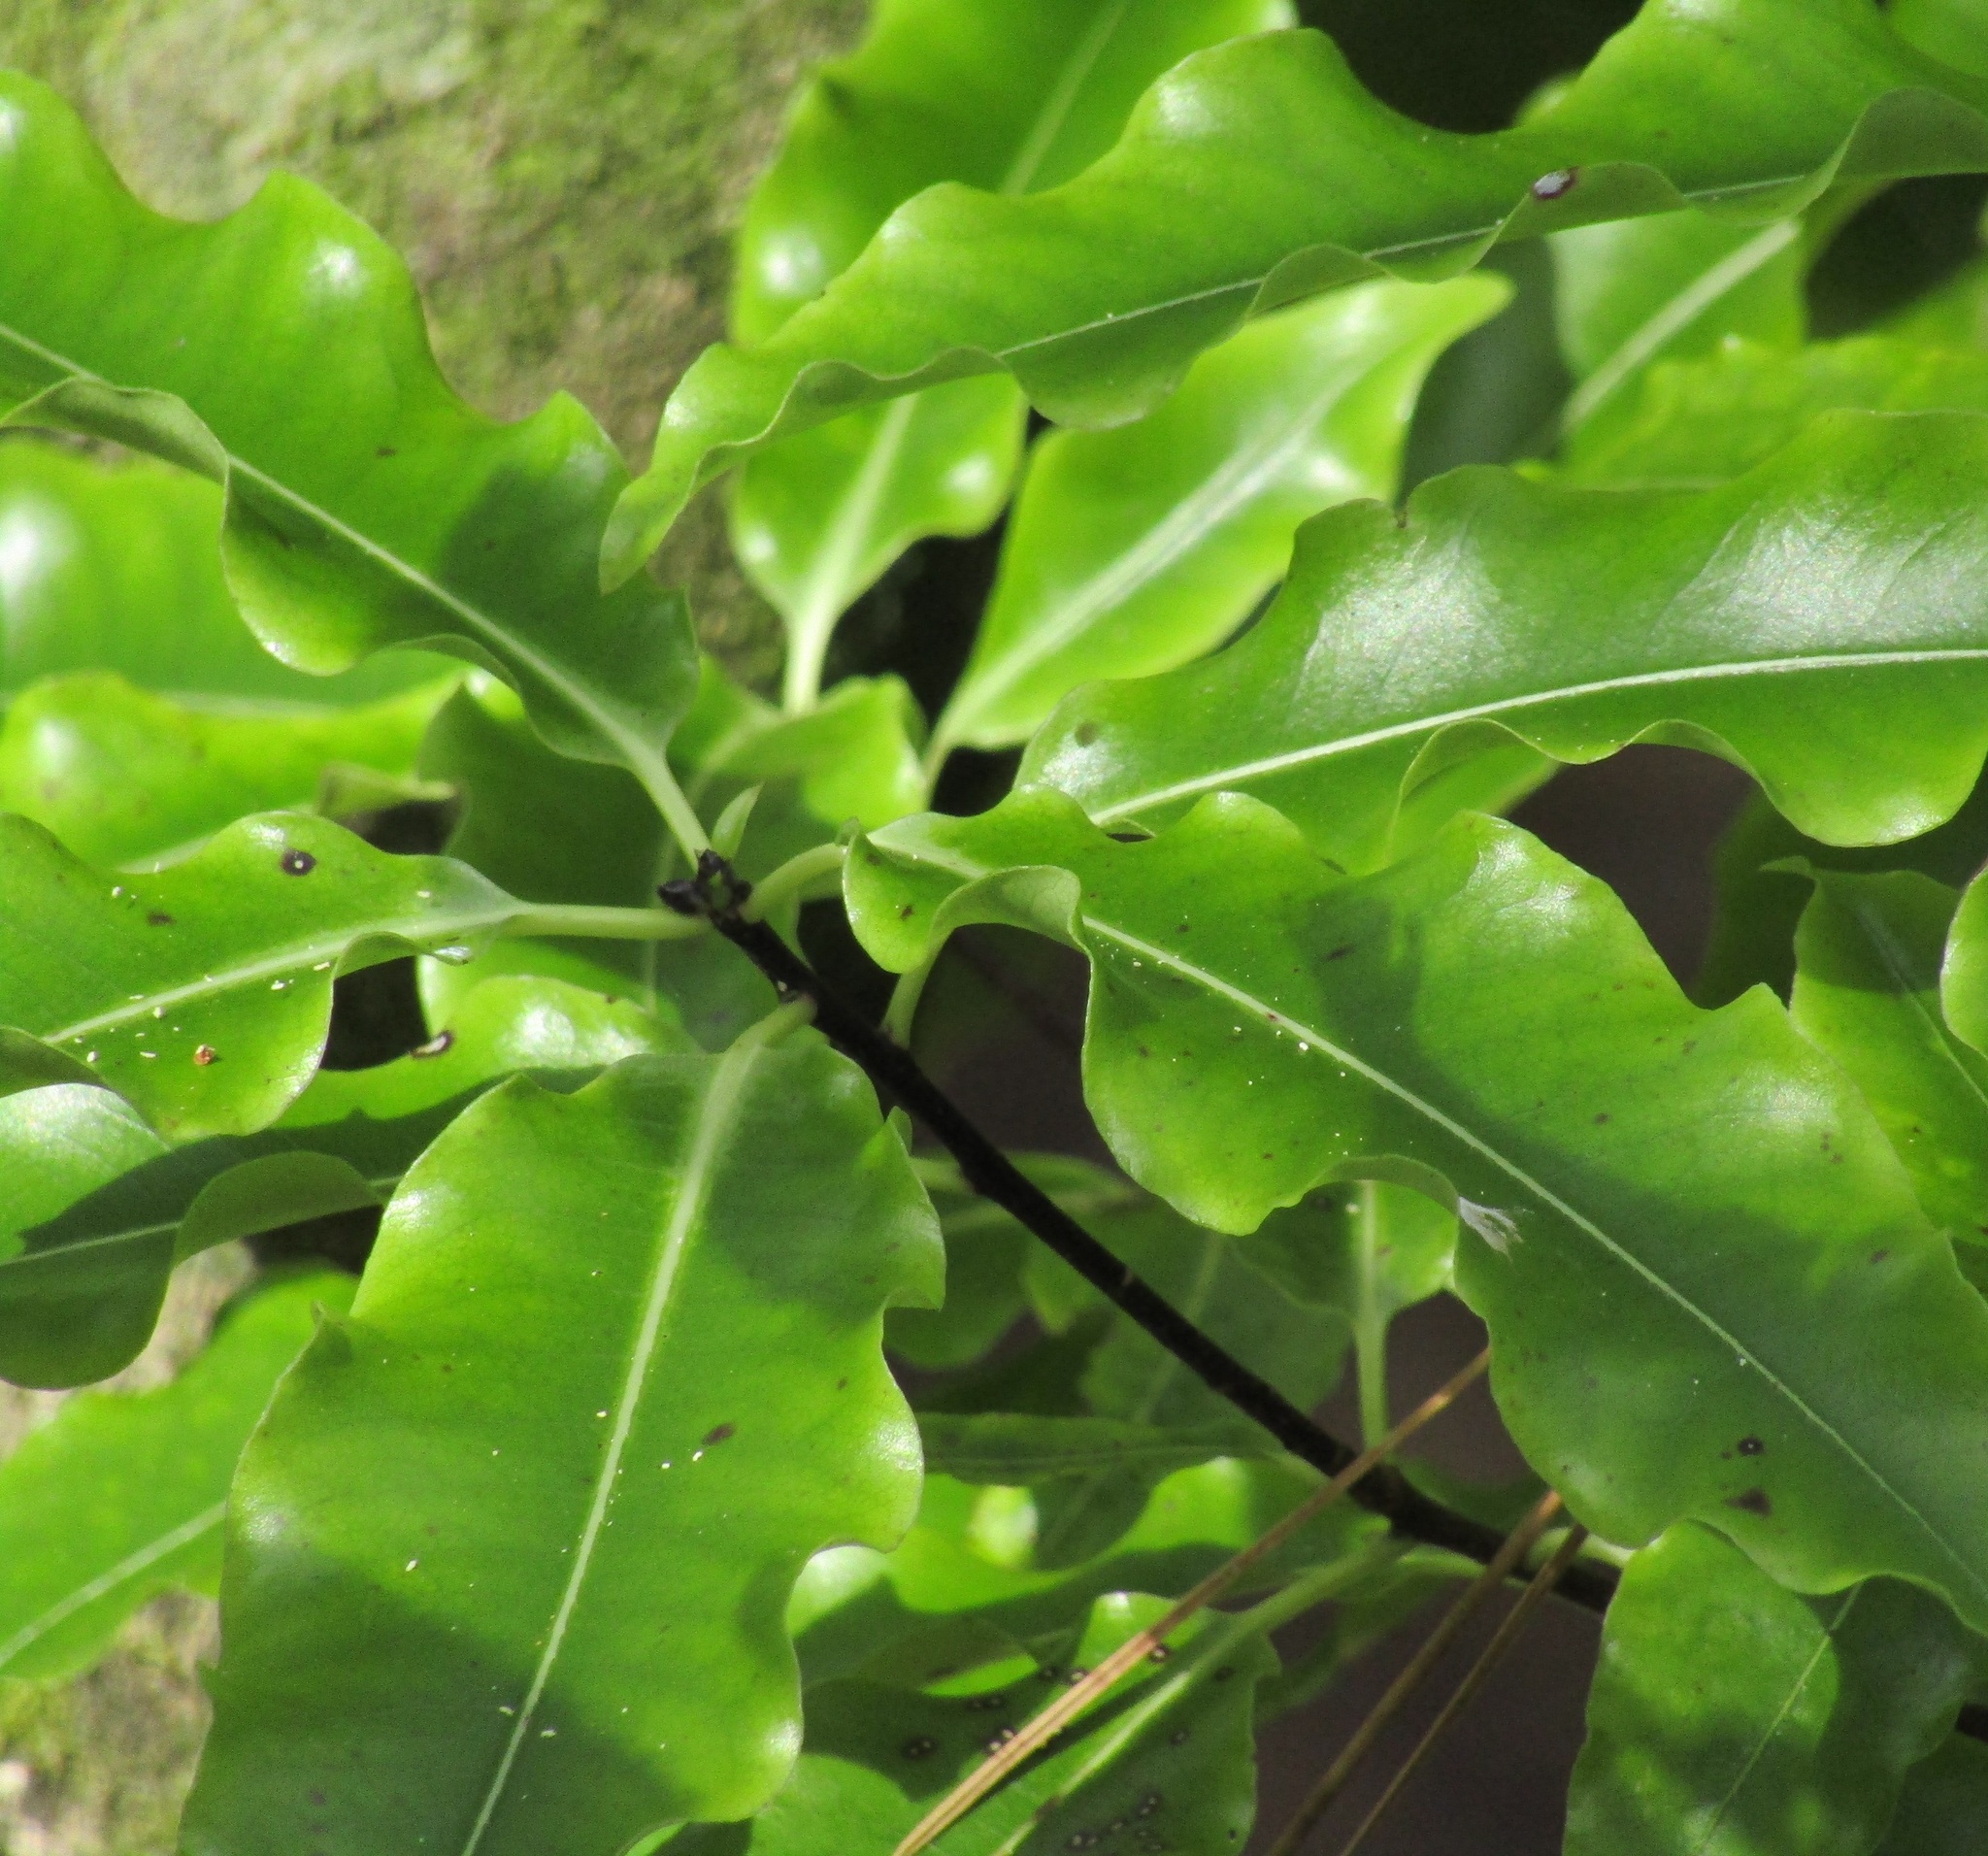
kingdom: Plantae
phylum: Tracheophyta
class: Magnoliopsida
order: Apiales
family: Pittosporaceae
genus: Pittosporum
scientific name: Pittosporum eugenioides
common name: Lemonwood
